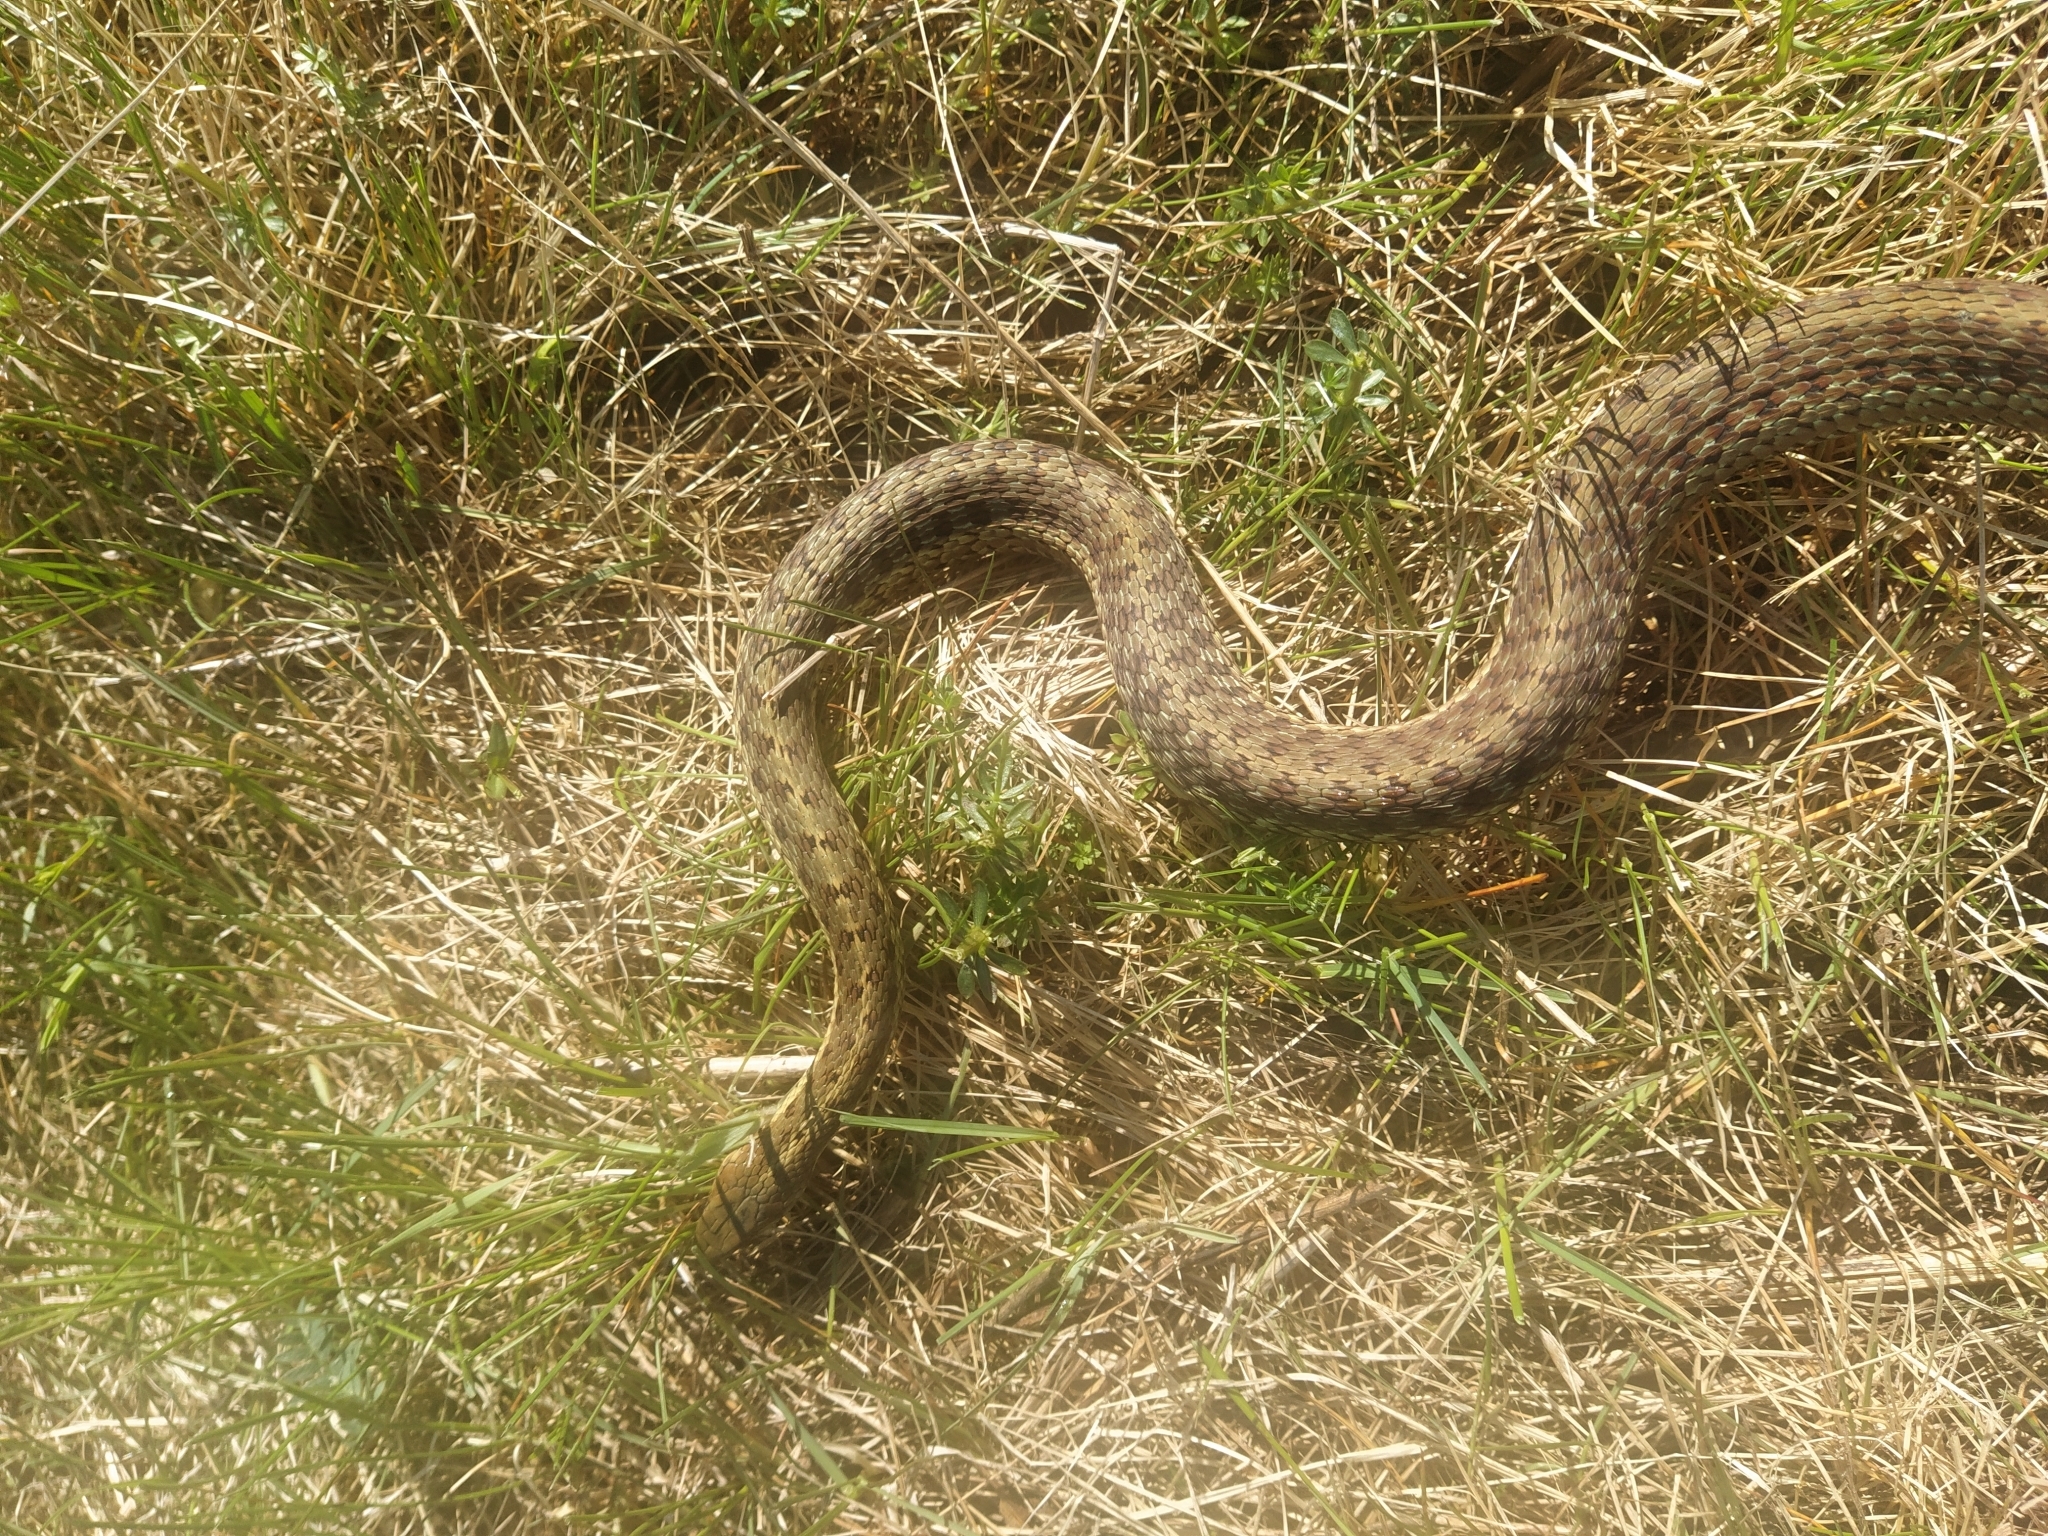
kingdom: Animalia
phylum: Chordata
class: Squamata
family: Colubridae
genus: Thamnophis
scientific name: Thamnophis sirtalis
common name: Common garter snake
